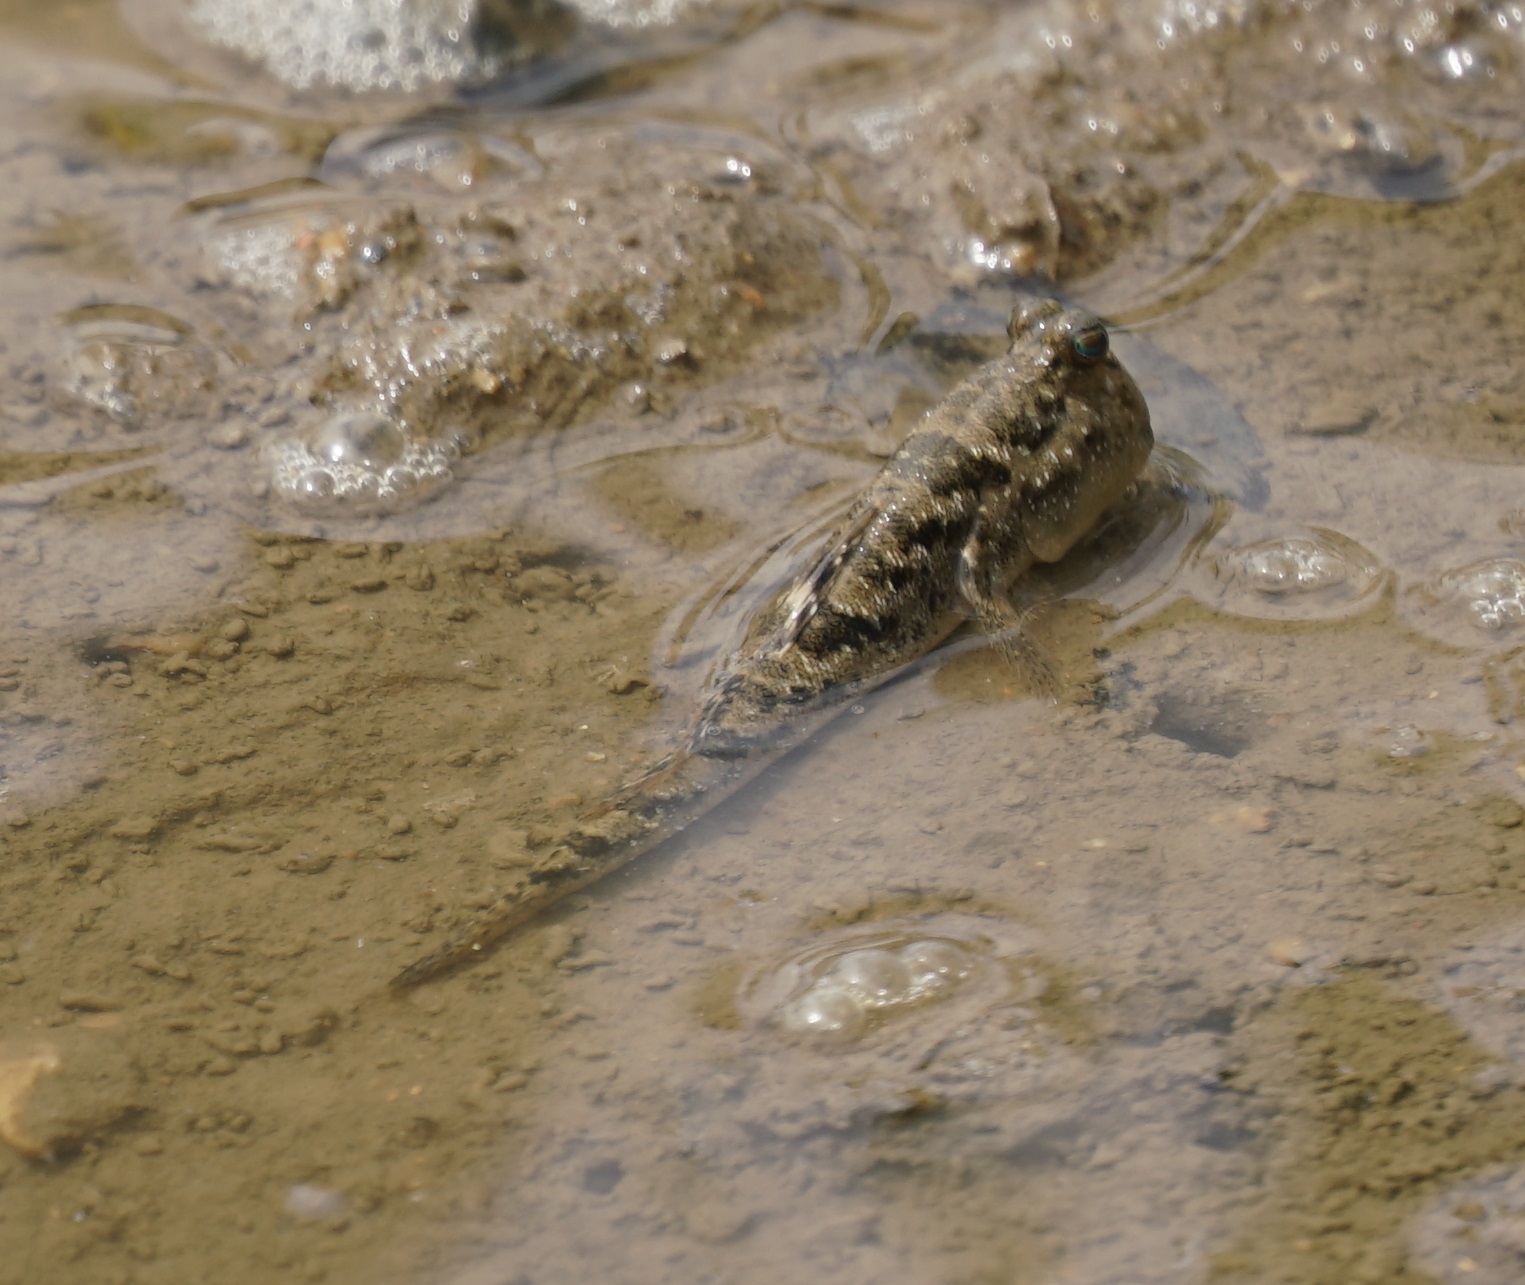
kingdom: Animalia
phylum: Chordata
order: Perciformes
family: Gobiidae
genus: Periophthalmus
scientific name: Periophthalmus argentilineatus
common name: Barred mudskipper
